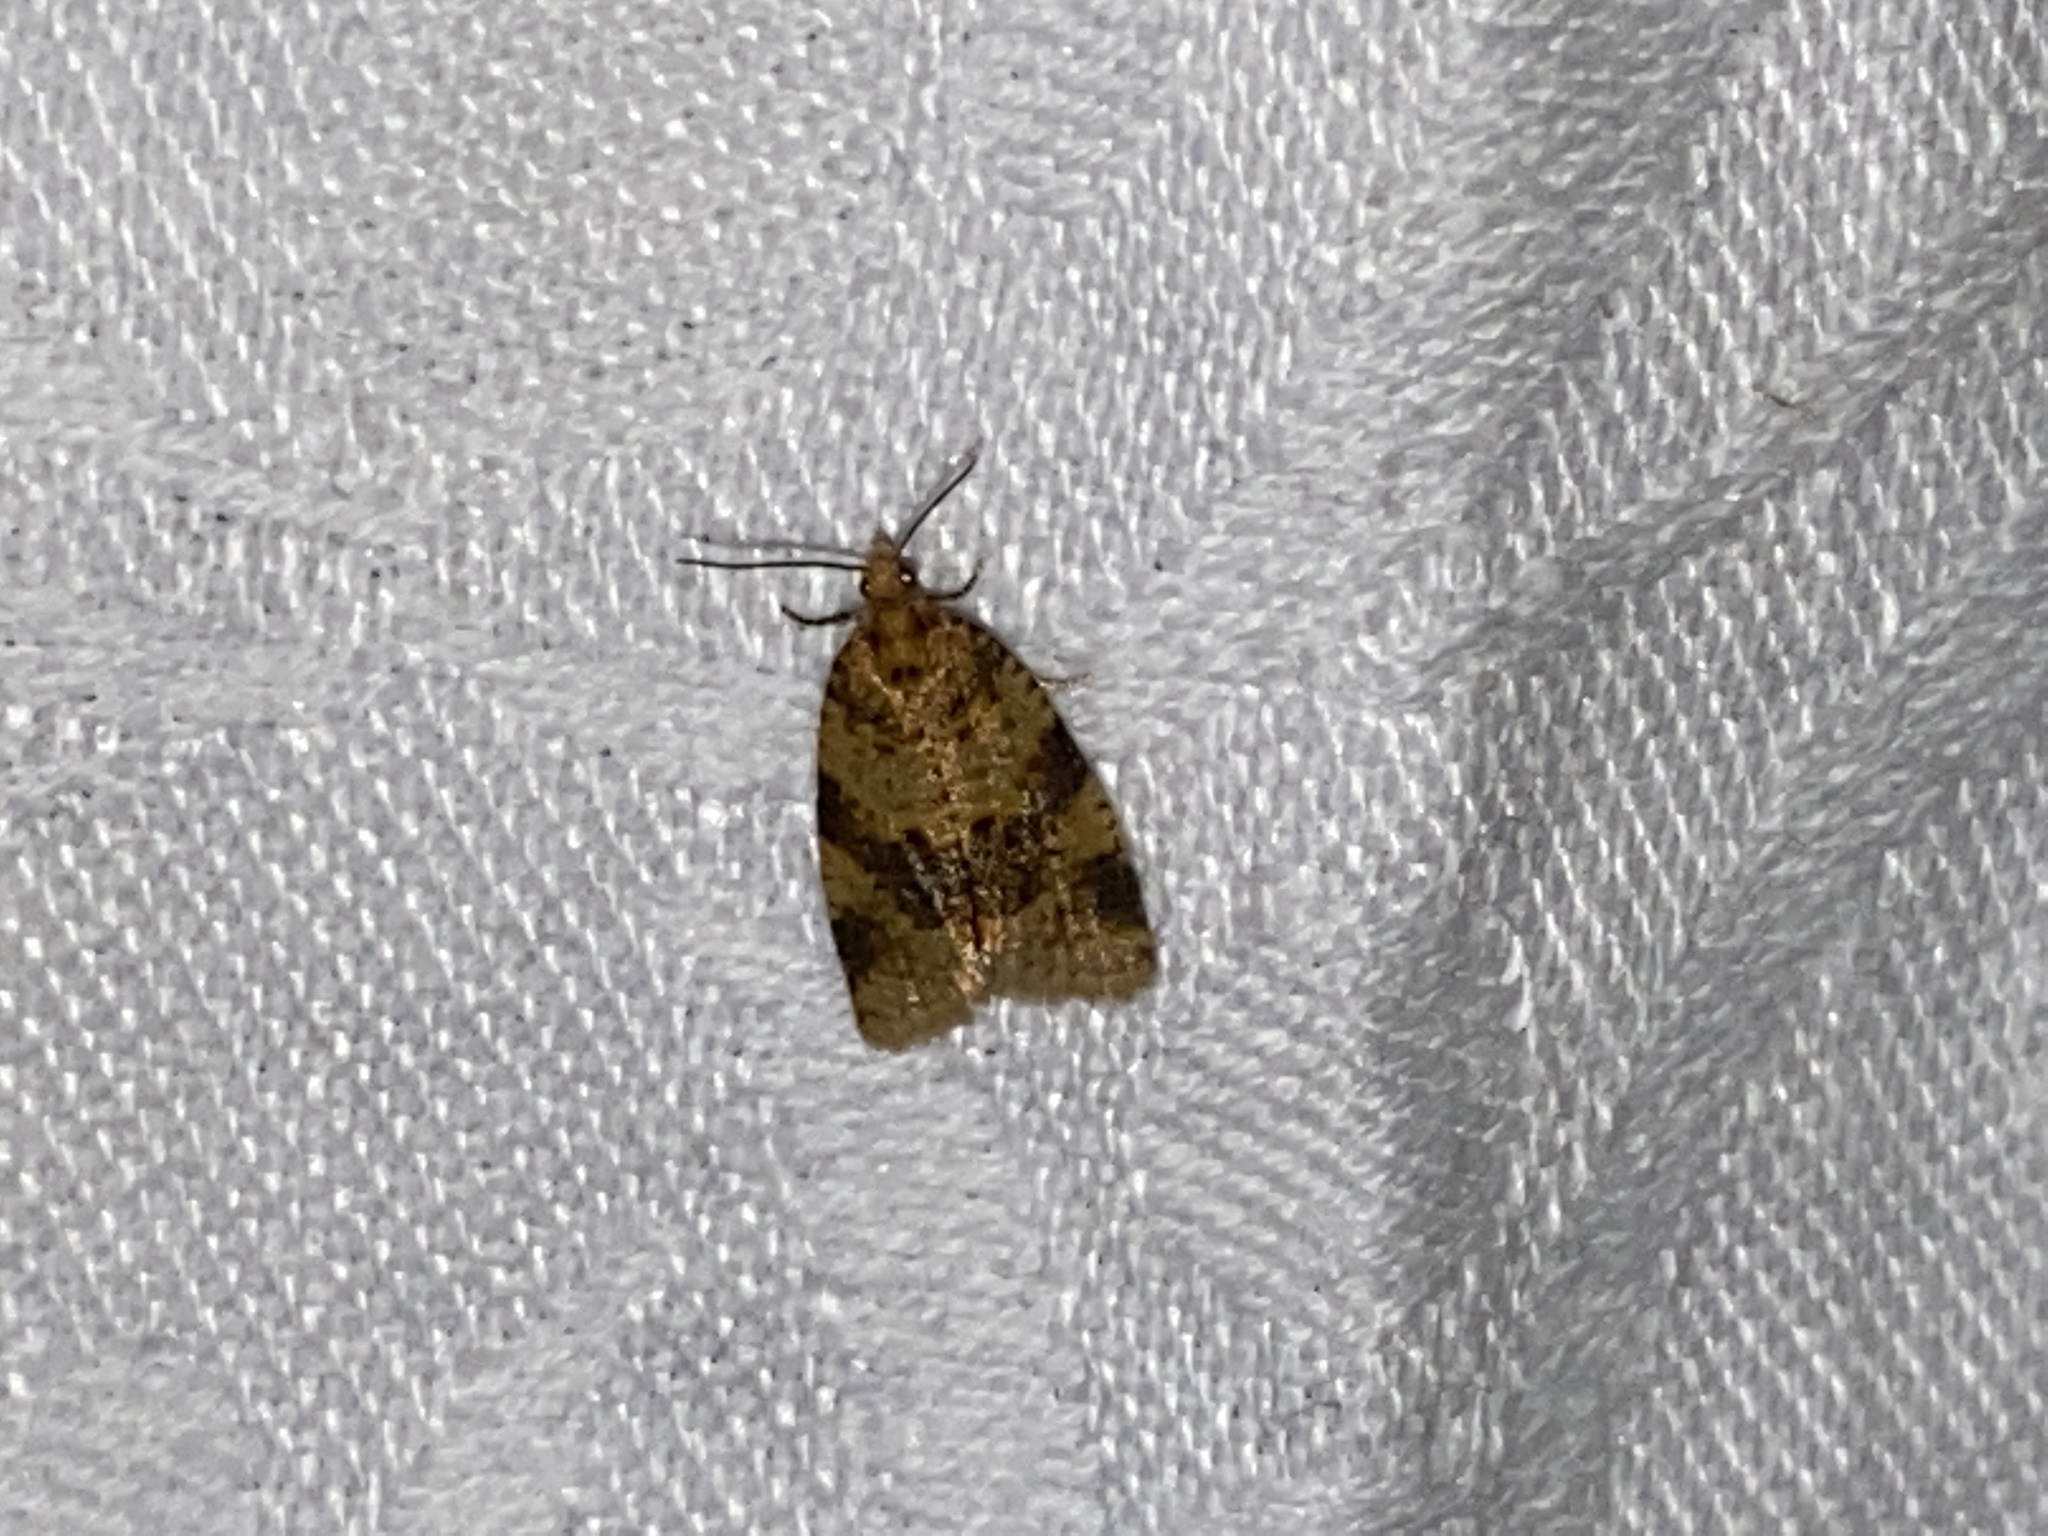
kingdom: Animalia
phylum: Arthropoda
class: Insecta
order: Lepidoptera
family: Tortricidae
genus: Epagoge
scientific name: Epagoge grotiana
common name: Brown-barred twist
